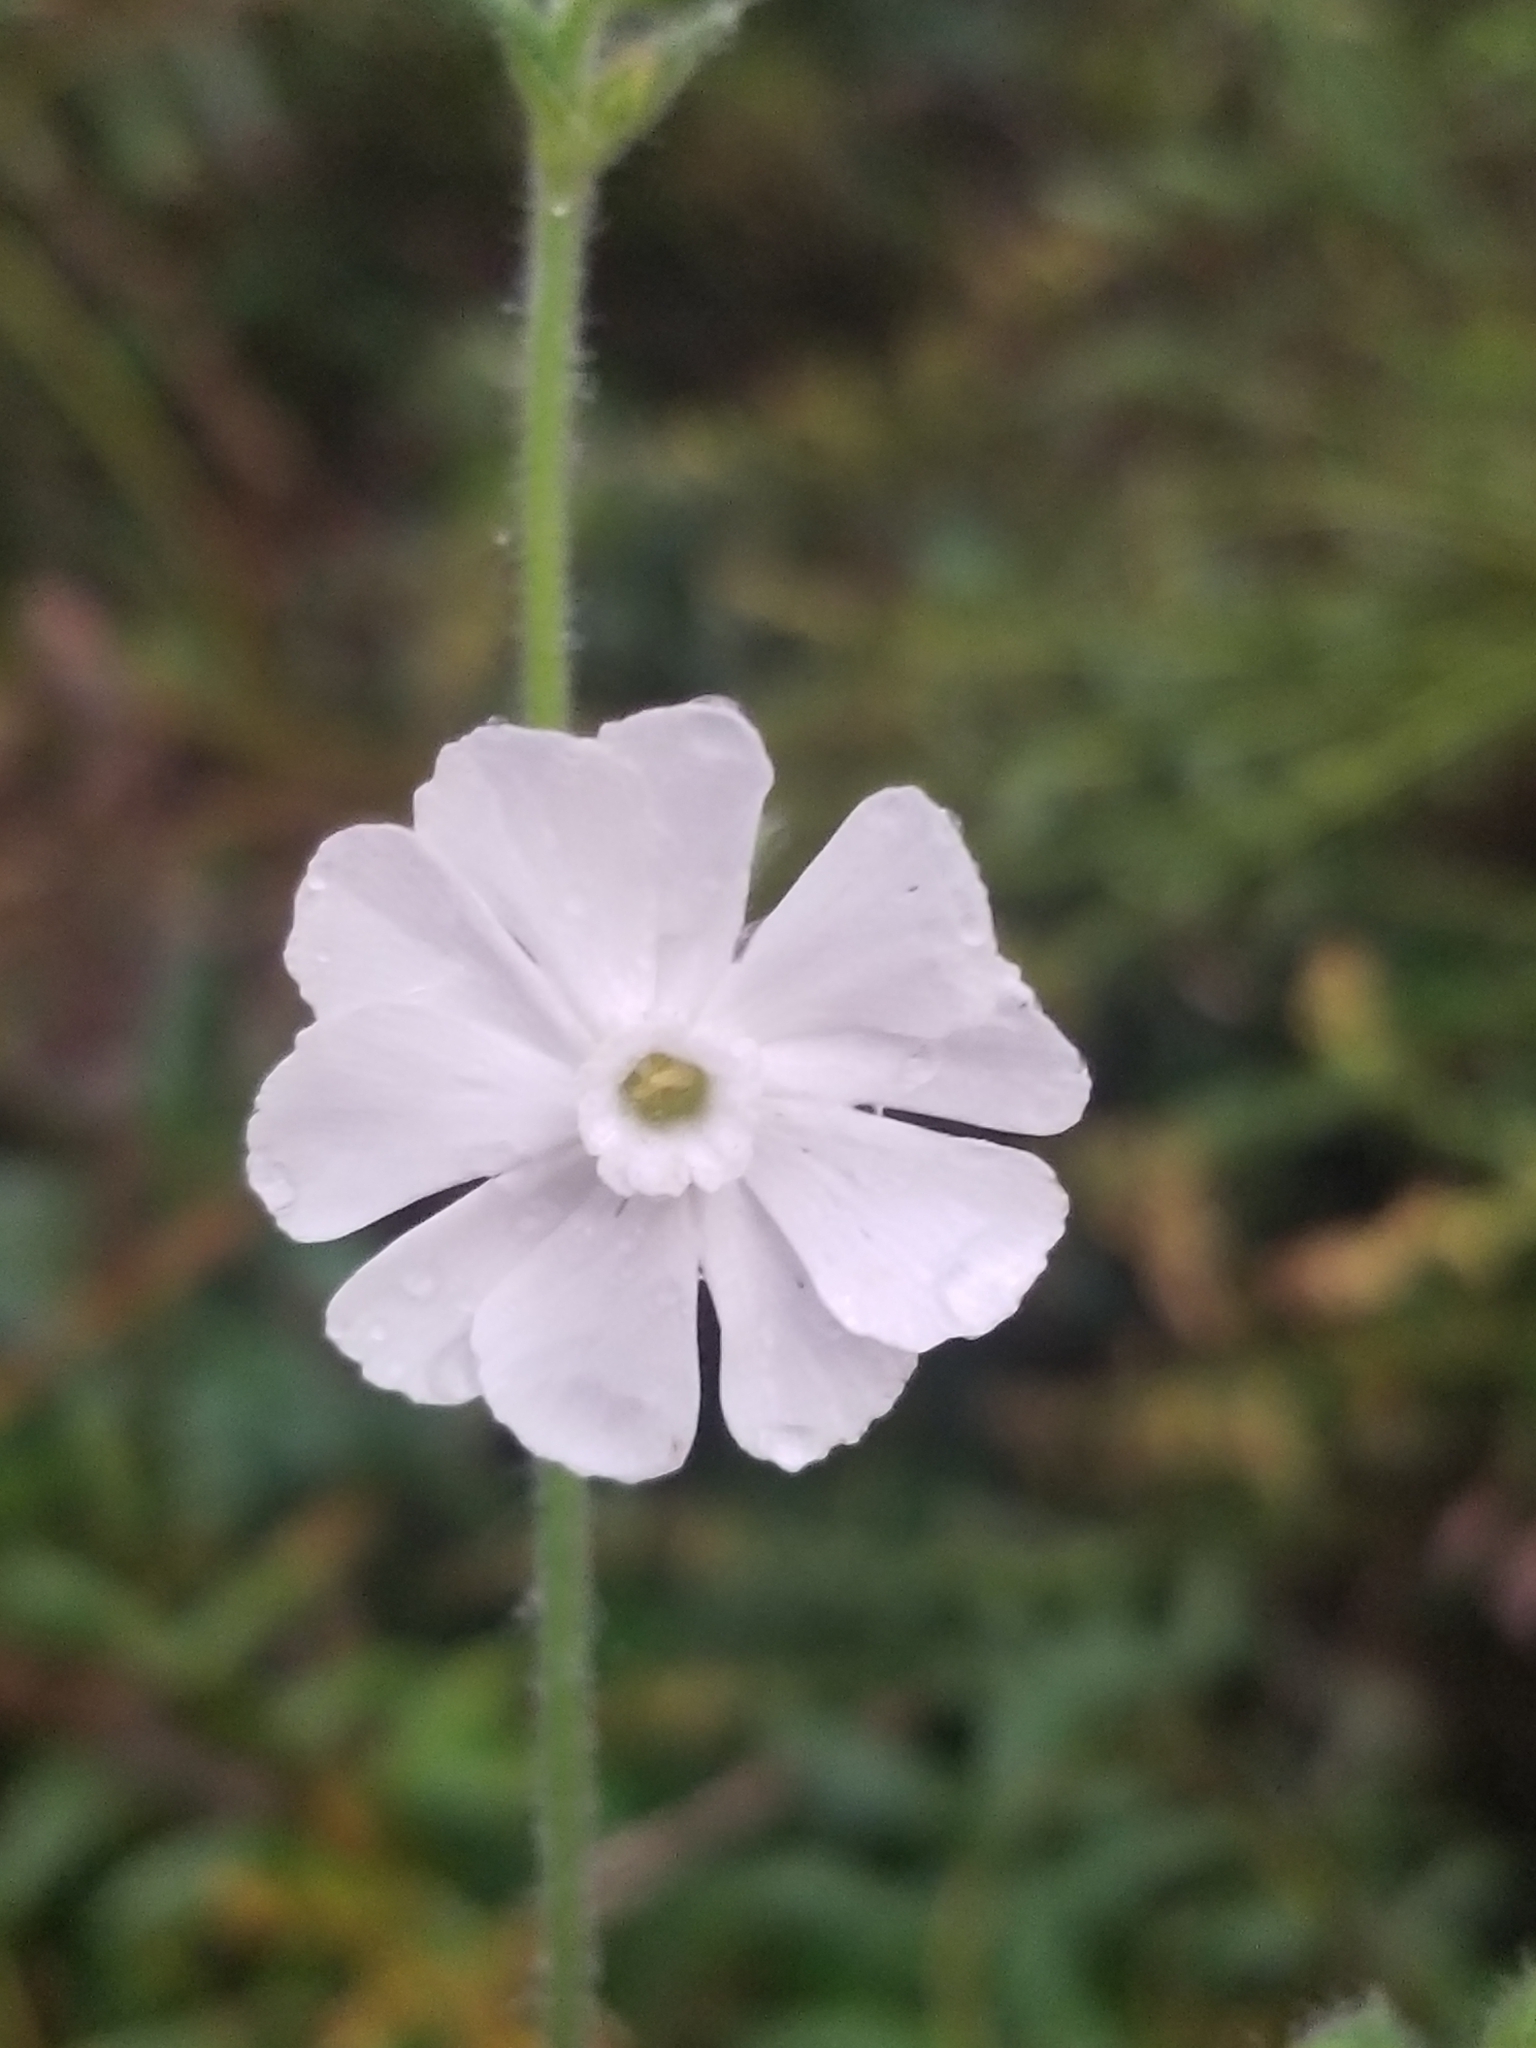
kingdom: Plantae
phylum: Tracheophyta
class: Magnoliopsida
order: Caryophyllales
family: Caryophyllaceae
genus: Silene
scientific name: Silene latifolia
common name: White campion
